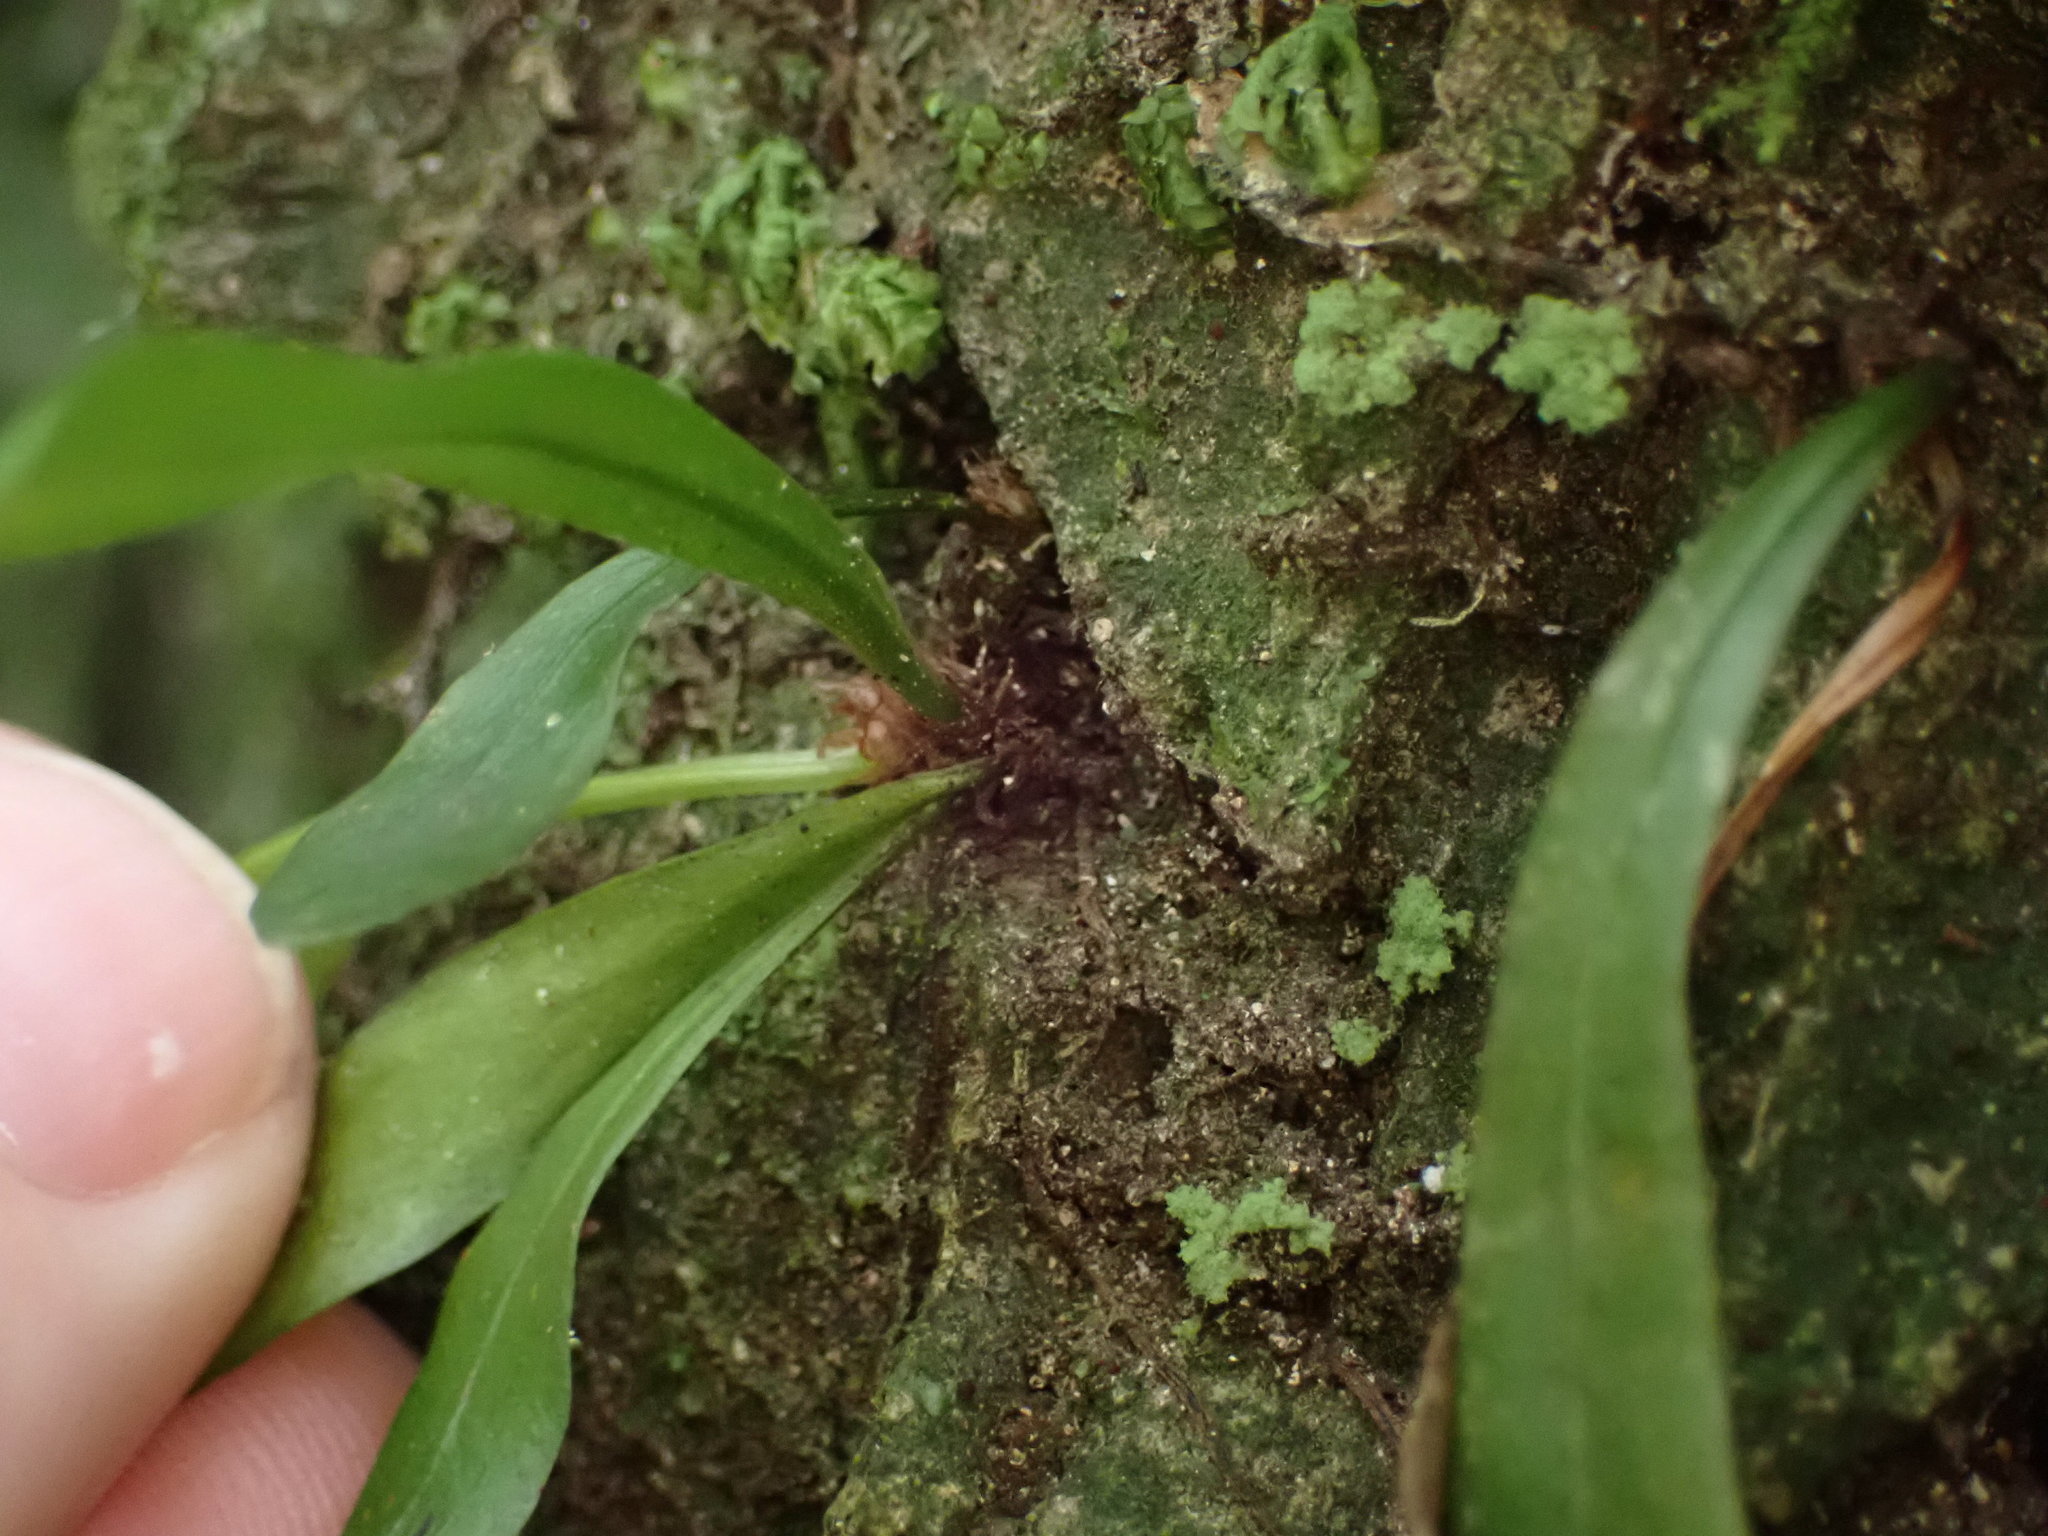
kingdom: Plantae
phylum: Tracheophyta
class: Polypodiopsida
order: Polypodiales
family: Polypodiaceae
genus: Loxogramme
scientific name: Loxogramme dictyopteris
